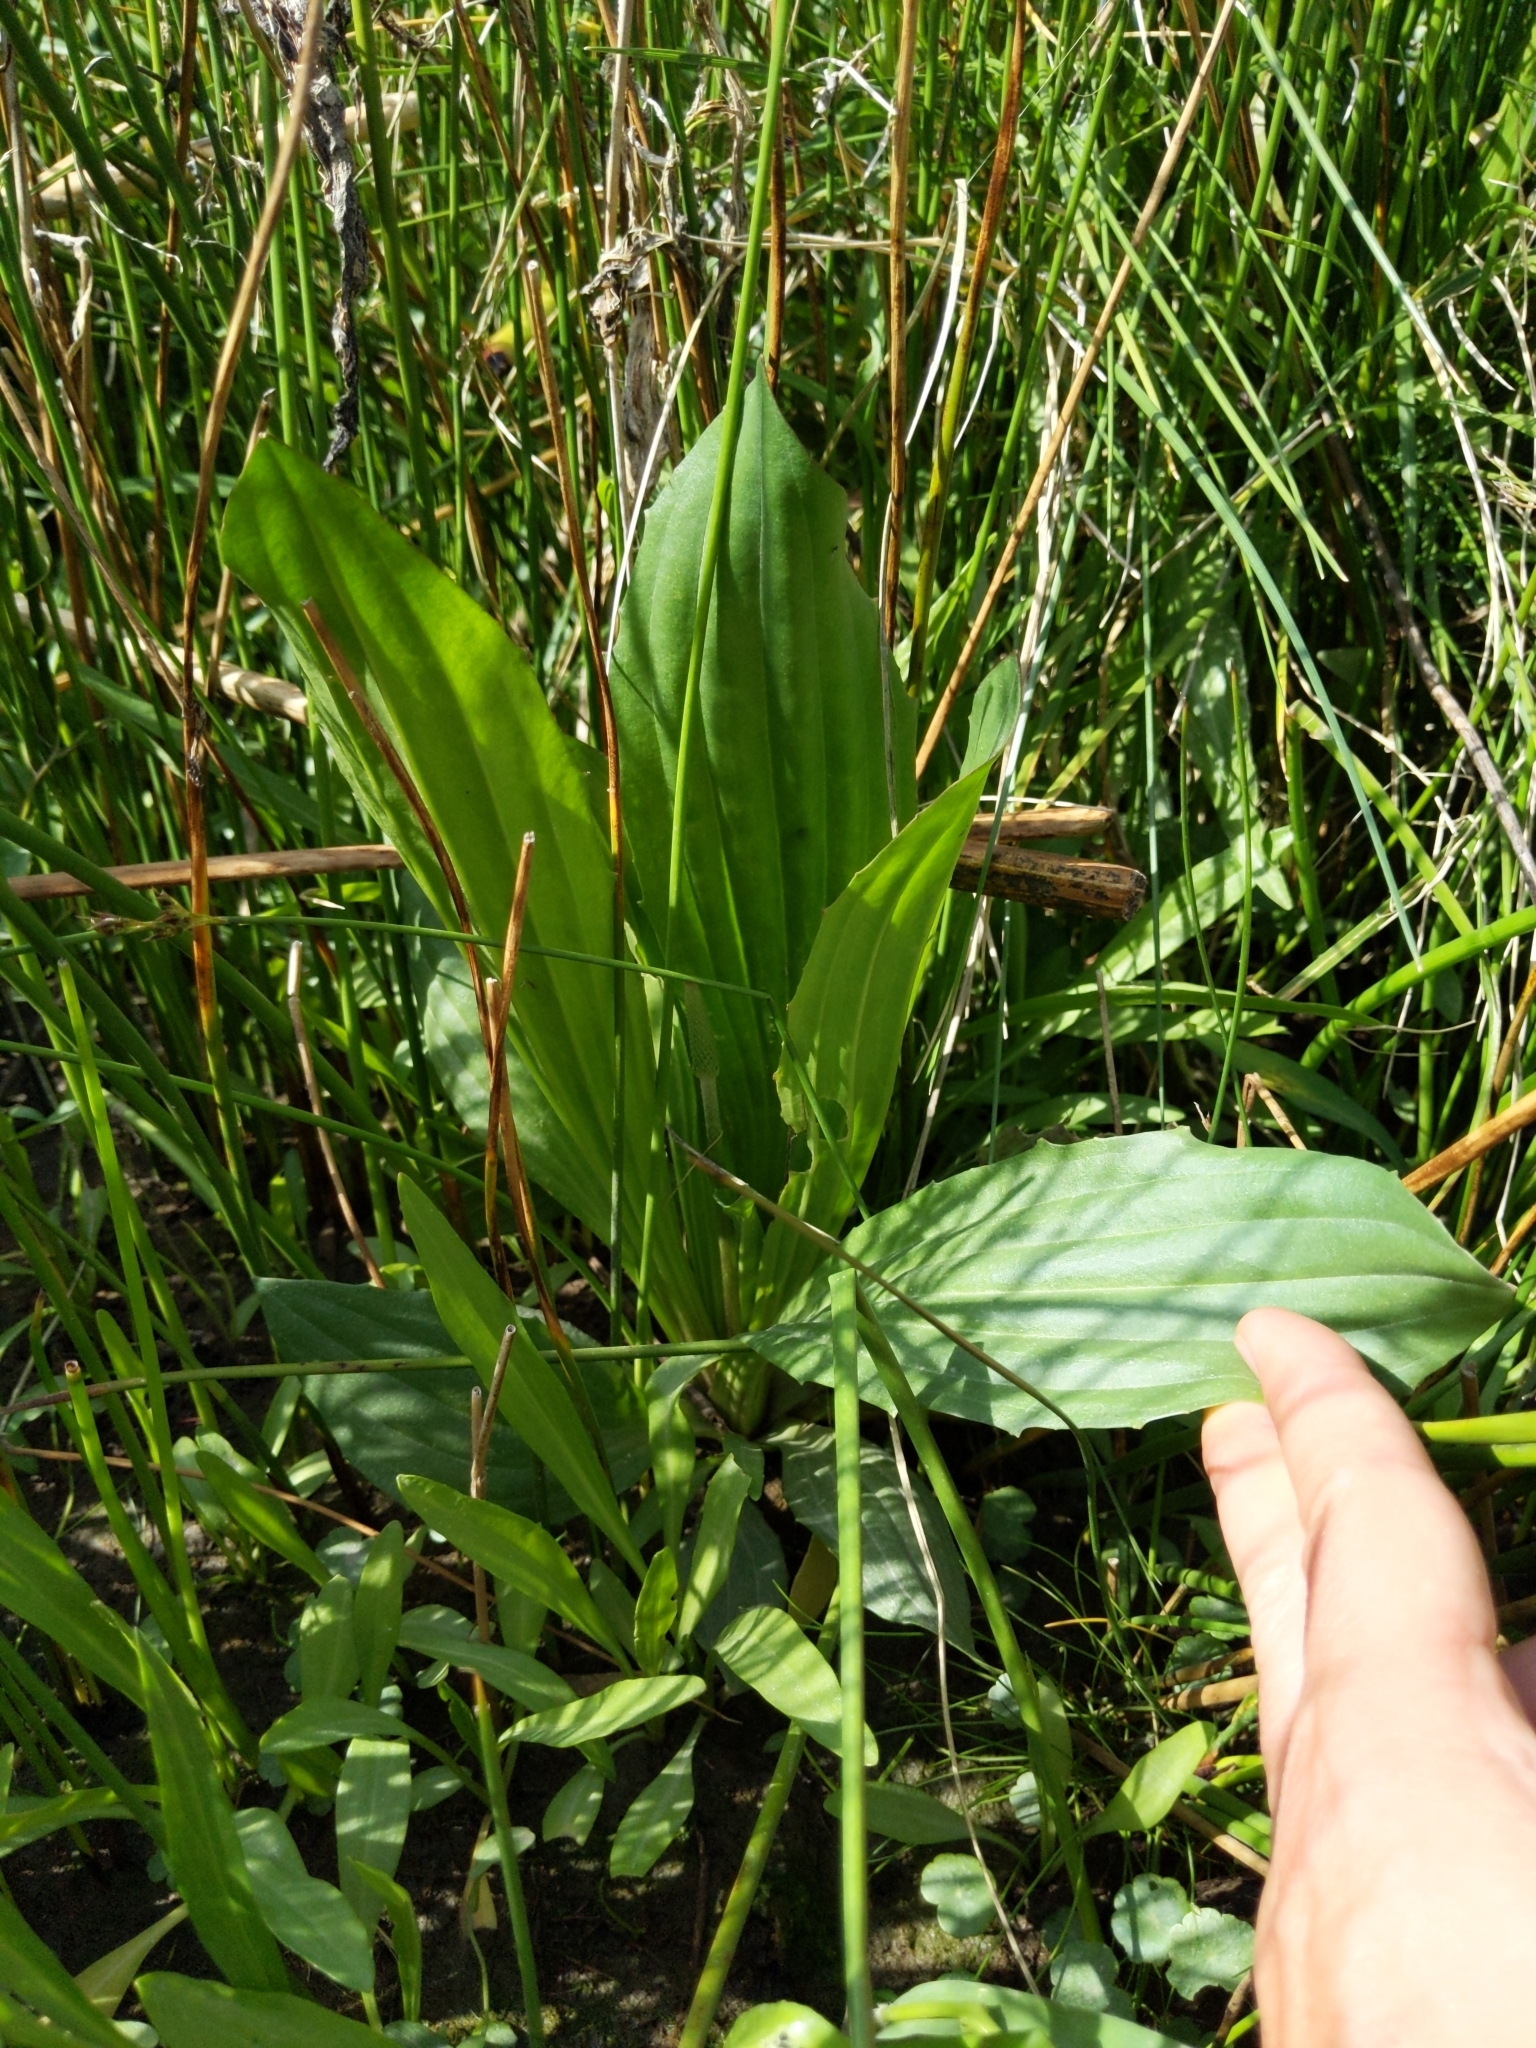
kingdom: Plantae
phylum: Tracheophyta
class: Magnoliopsida
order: Lamiales
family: Plantaginaceae
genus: Plantago
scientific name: Plantago subnuda
